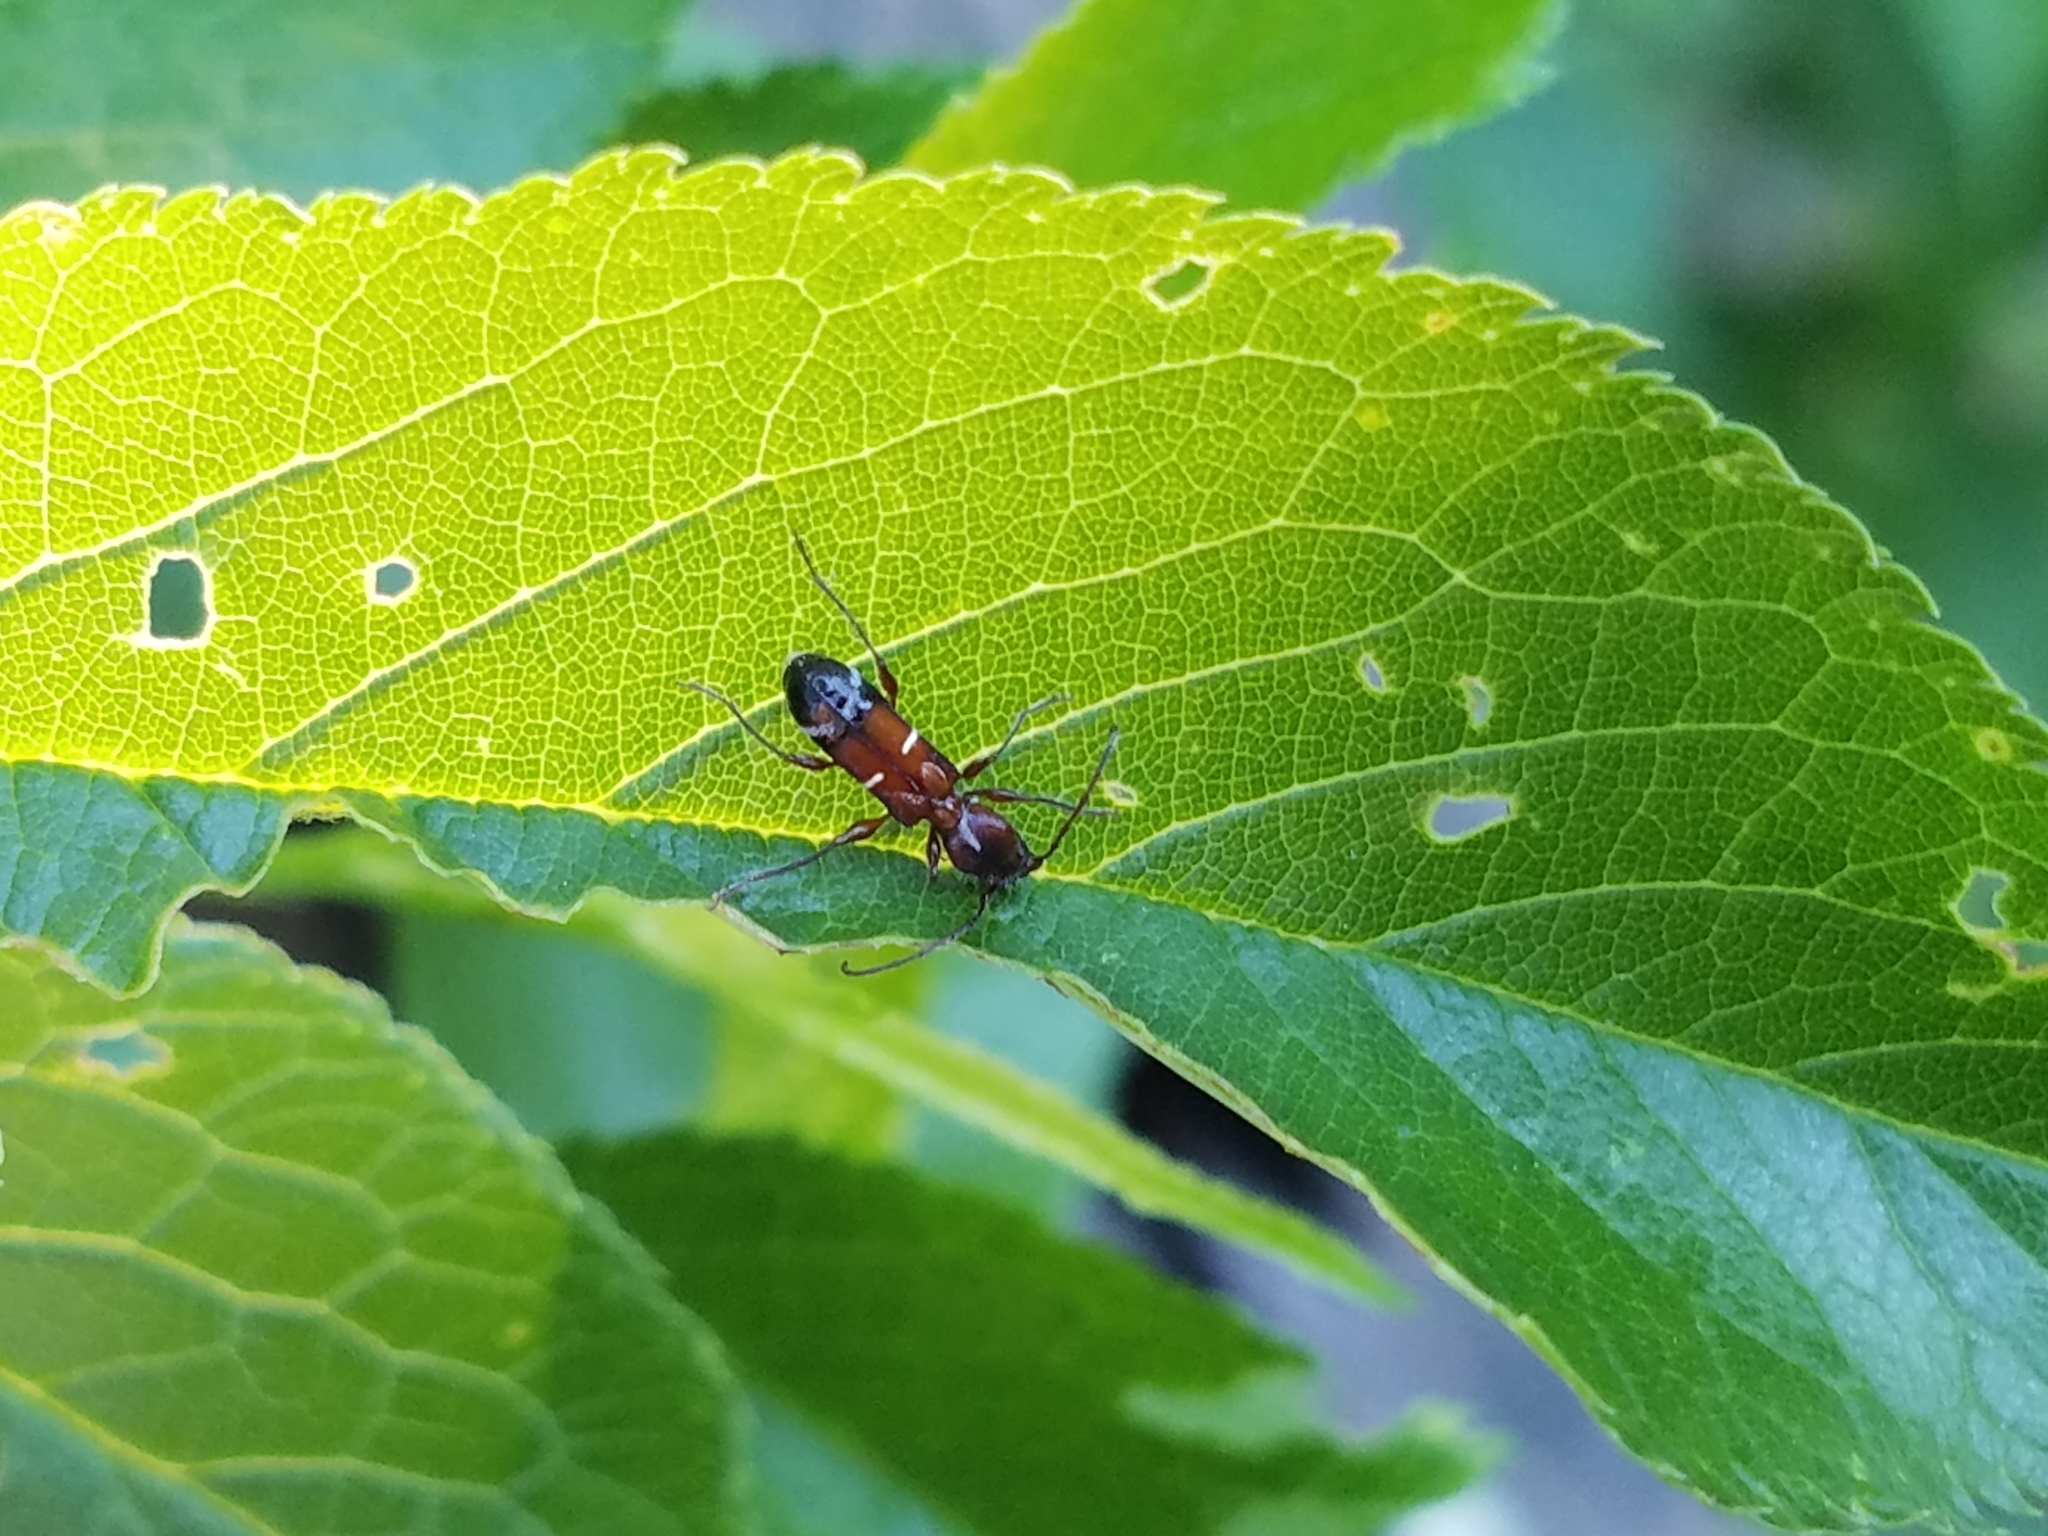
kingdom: Animalia
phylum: Arthropoda
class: Insecta
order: Coleoptera
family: Cerambycidae
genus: Euderces
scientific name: Euderces pini
